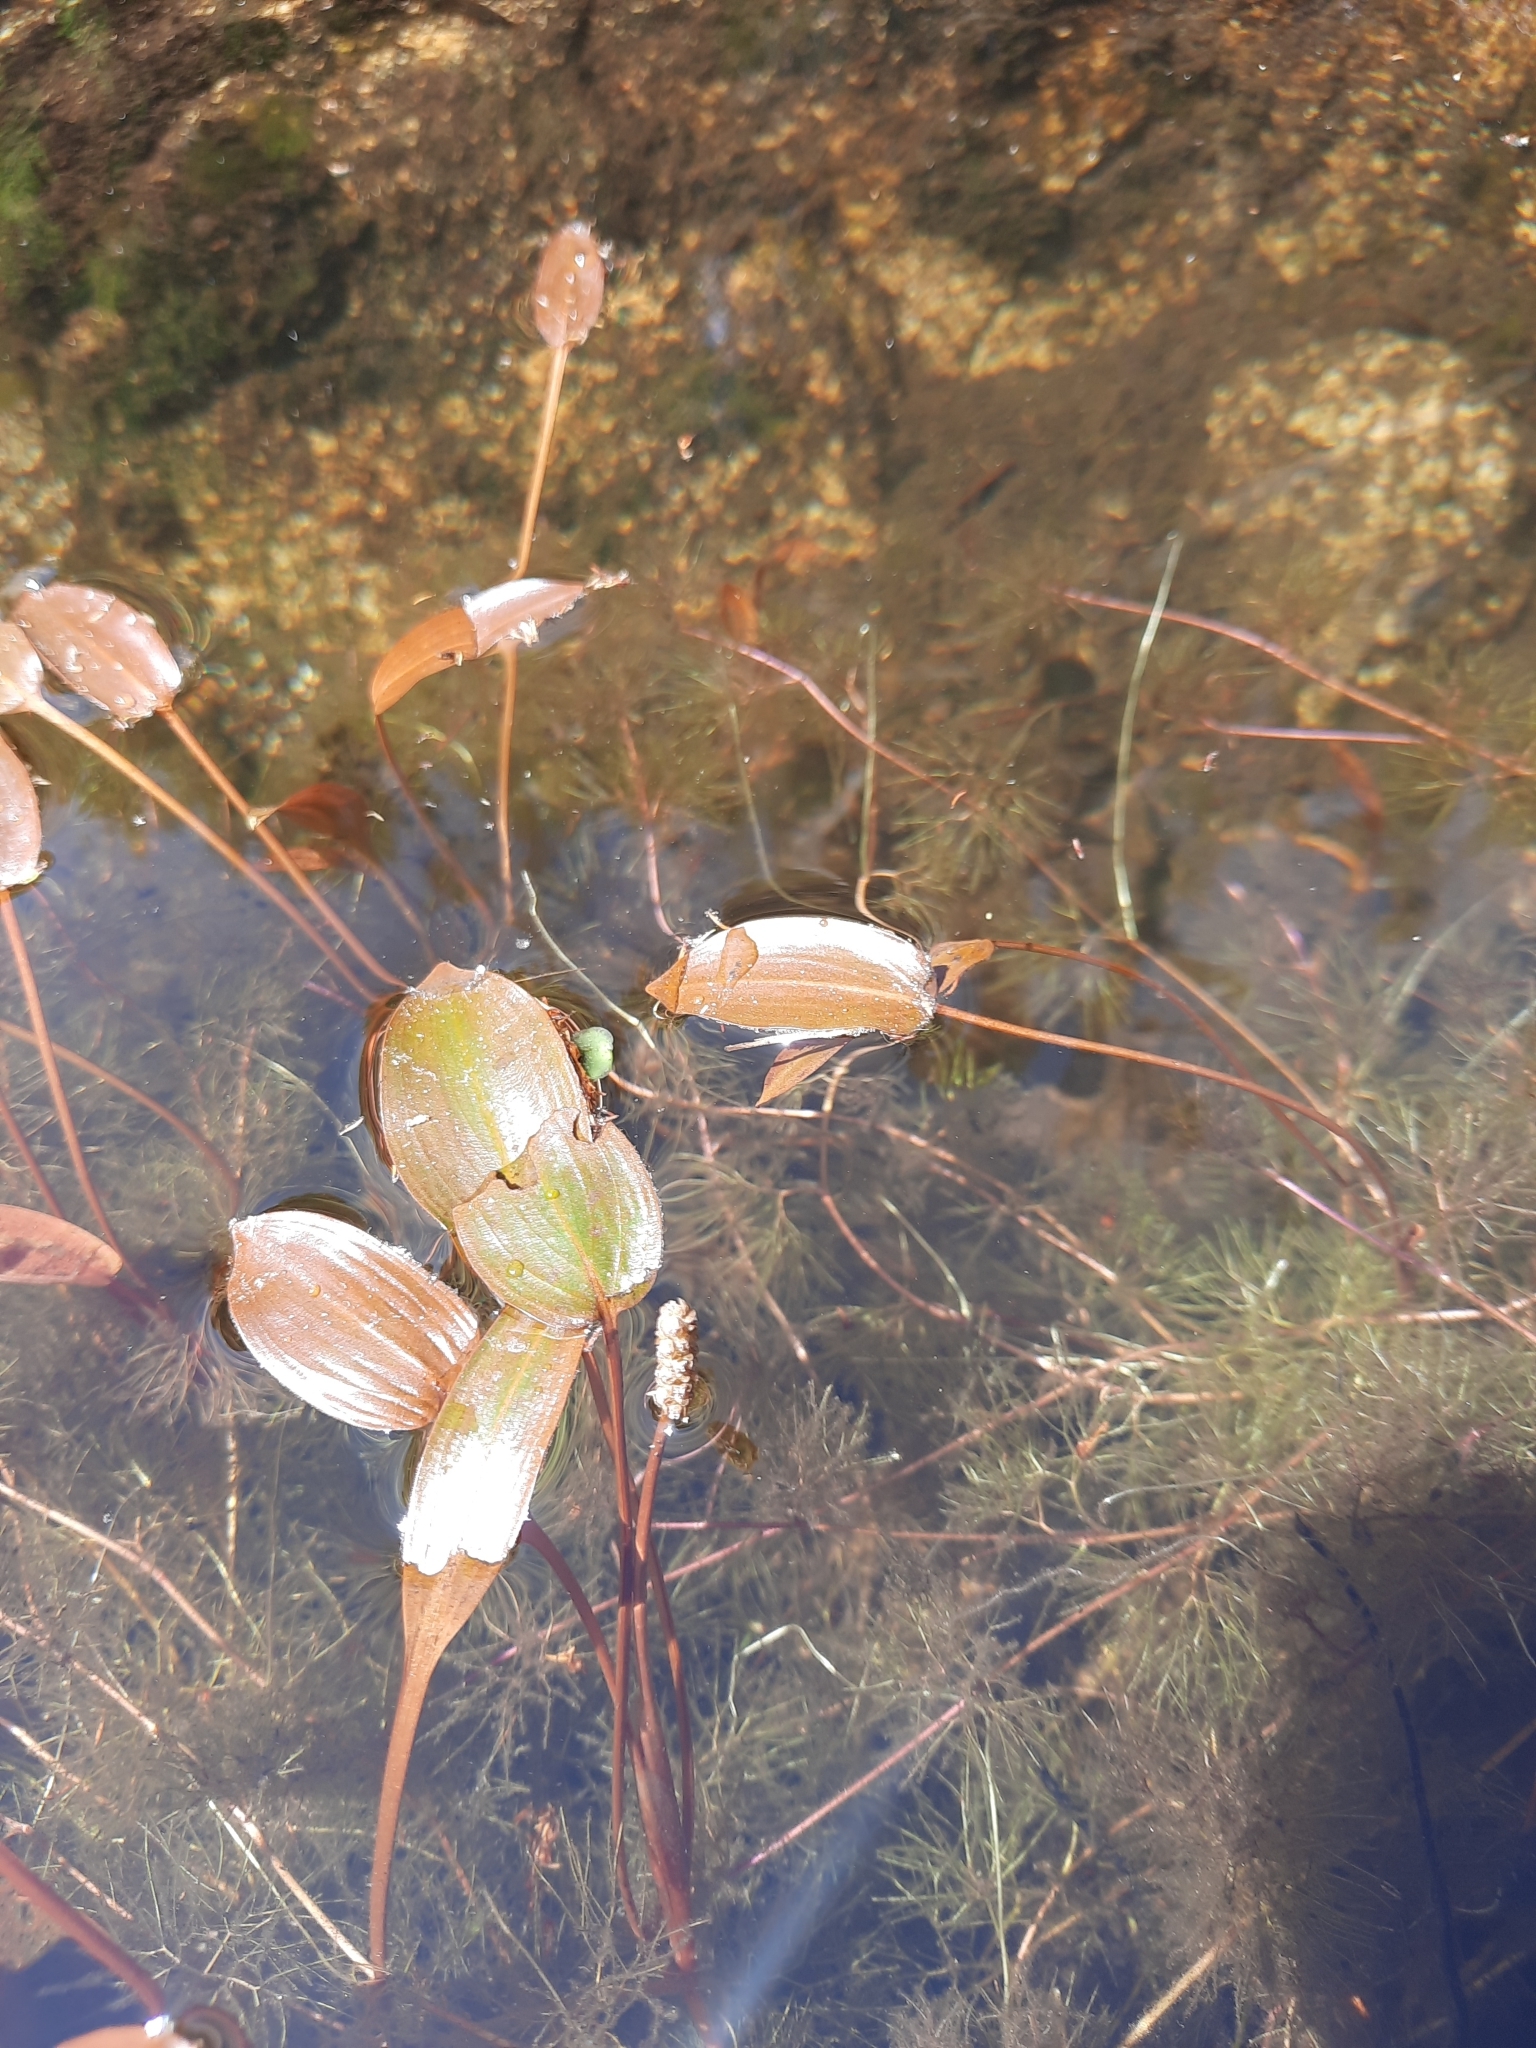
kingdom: Plantae
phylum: Tracheophyta
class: Liliopsida
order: Alismatales
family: Potamogetonaceae
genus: Potamogeton
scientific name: Potamogeton natans
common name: Broad-leaved pondweed
